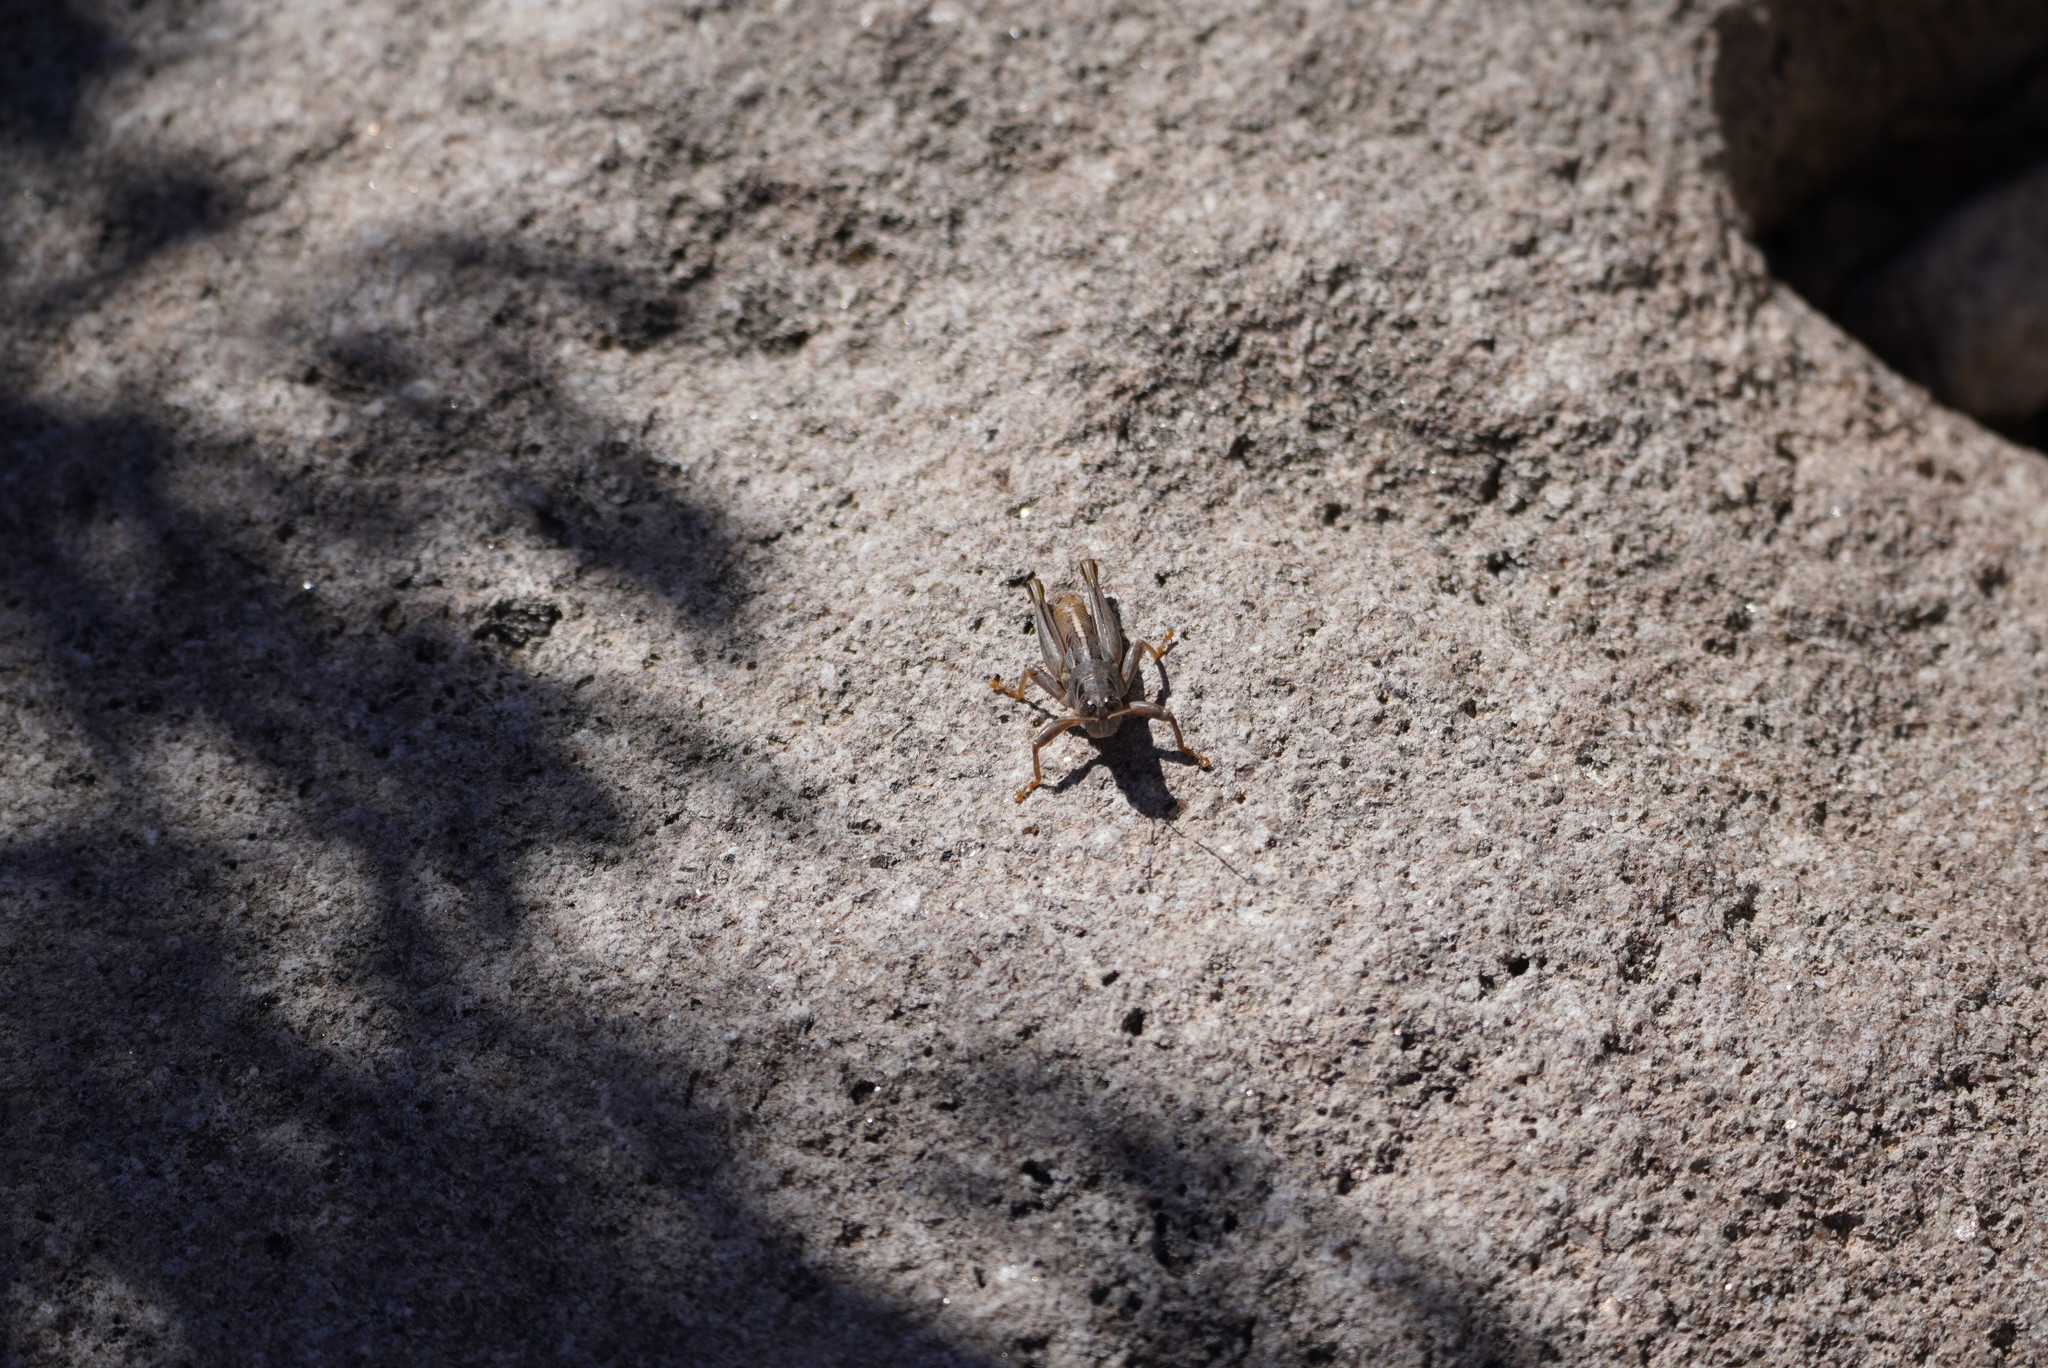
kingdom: Animalia
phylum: Arthropoda
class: Insecta
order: Orthoptera
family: Acrididae
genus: Barytettix
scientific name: Barytettix humphreysii
